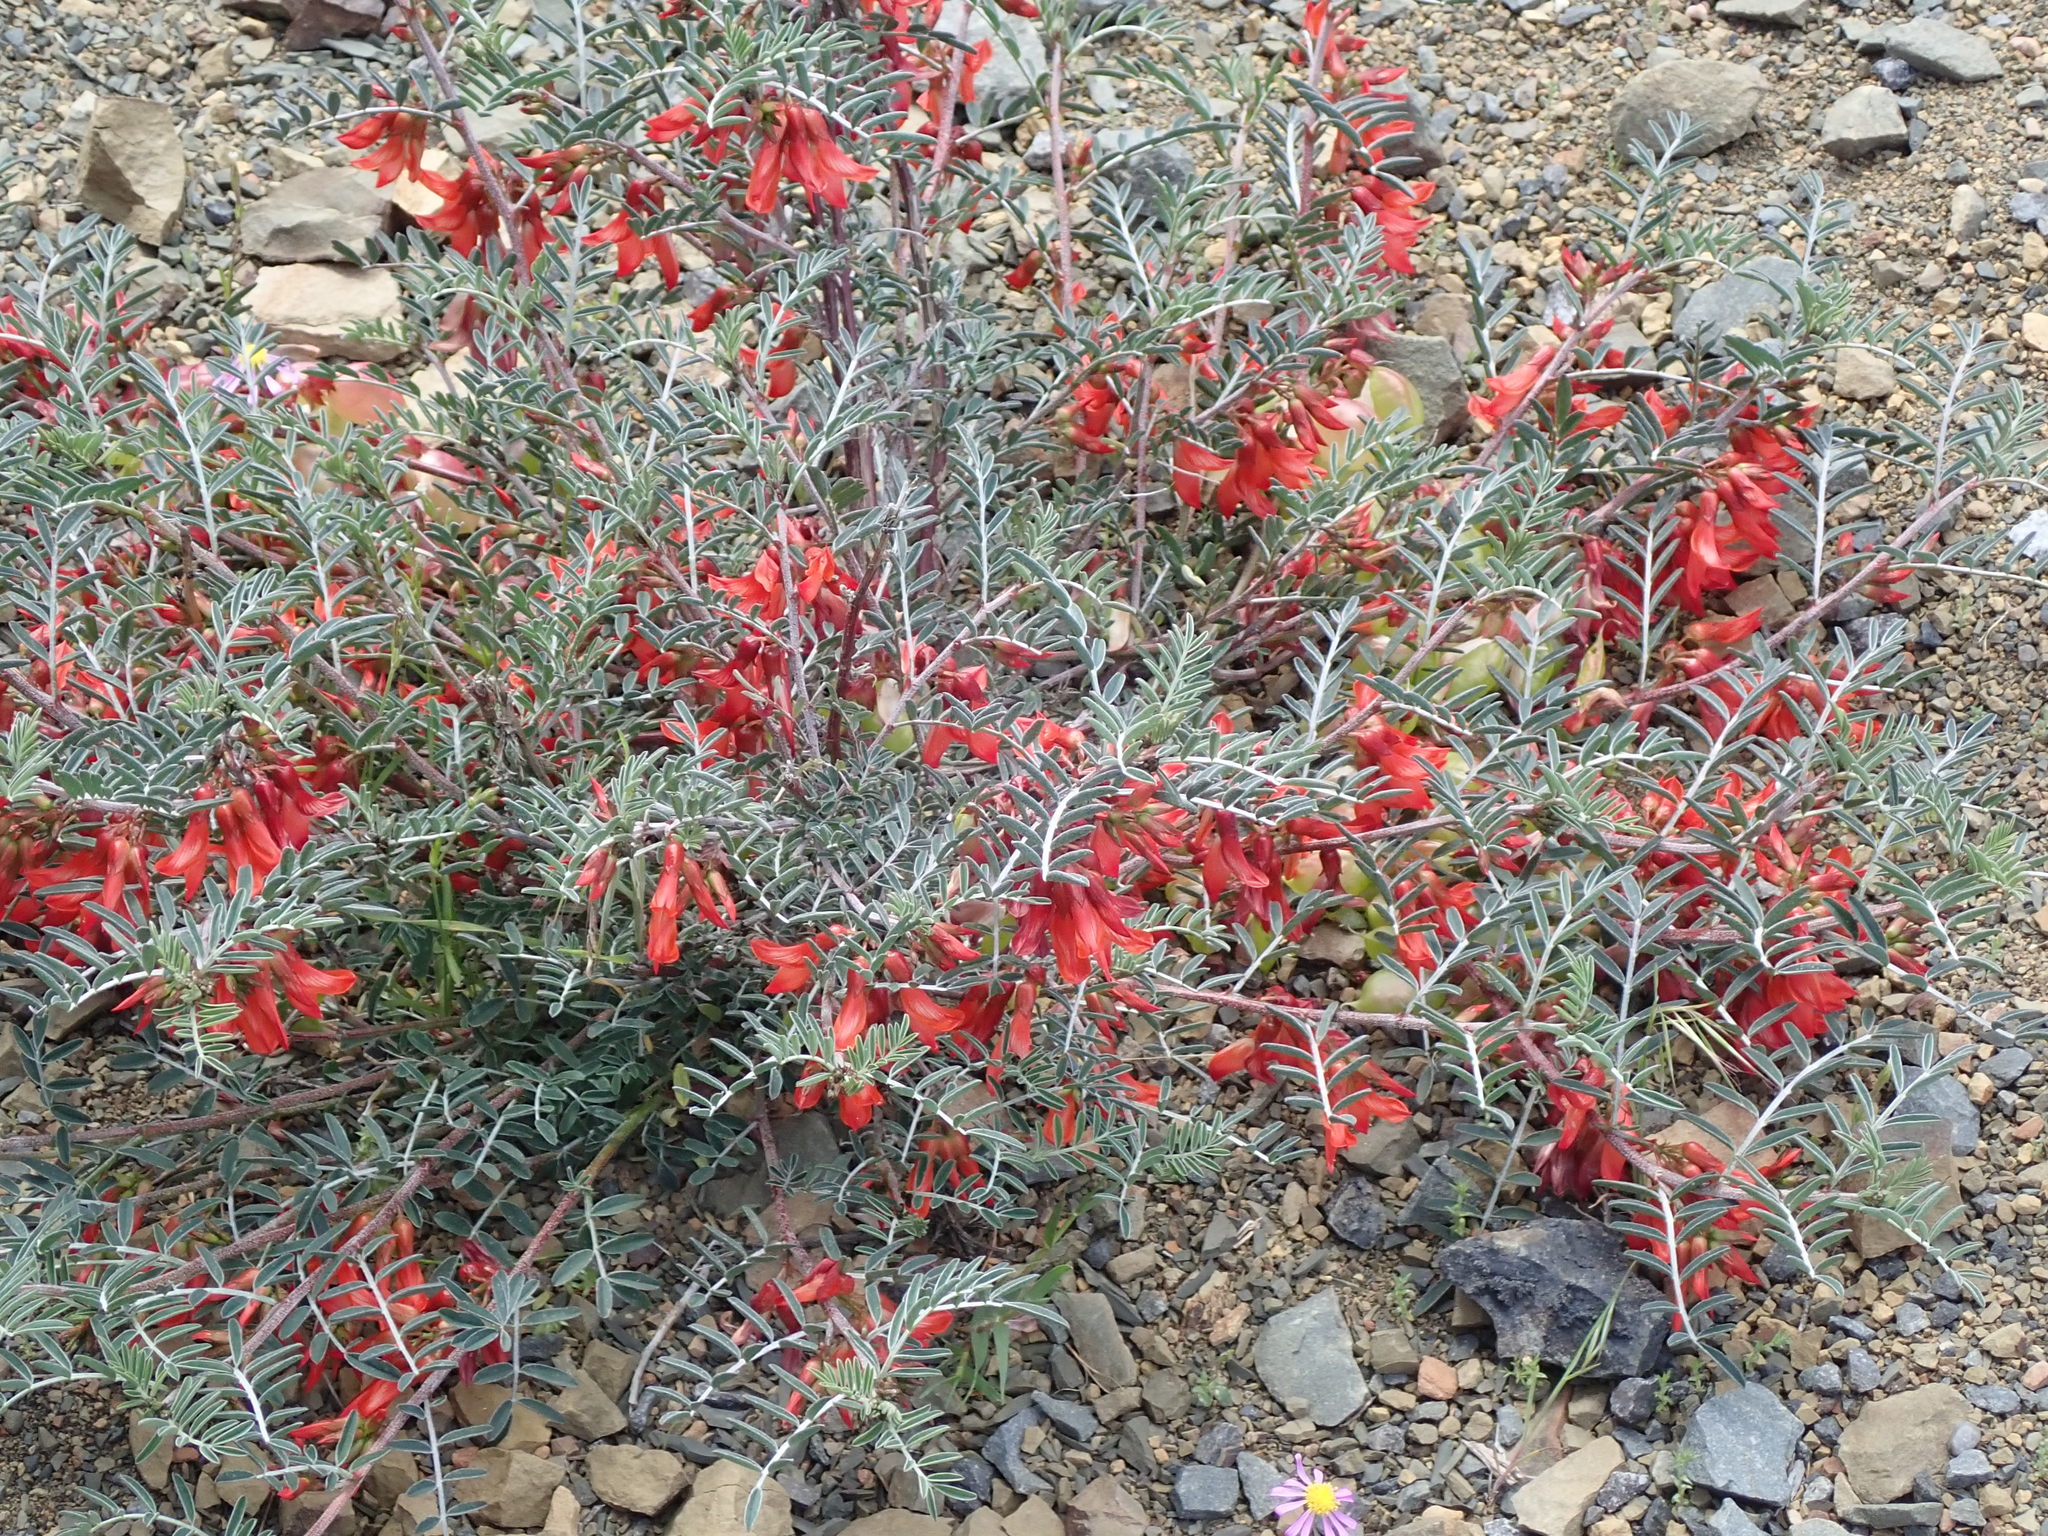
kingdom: Plantae
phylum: Tracheophyta
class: Magnoliopsida
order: Fabales
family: Fabaceae
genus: Lessertia
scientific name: Lessertia frutescens
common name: Balloon-pea
